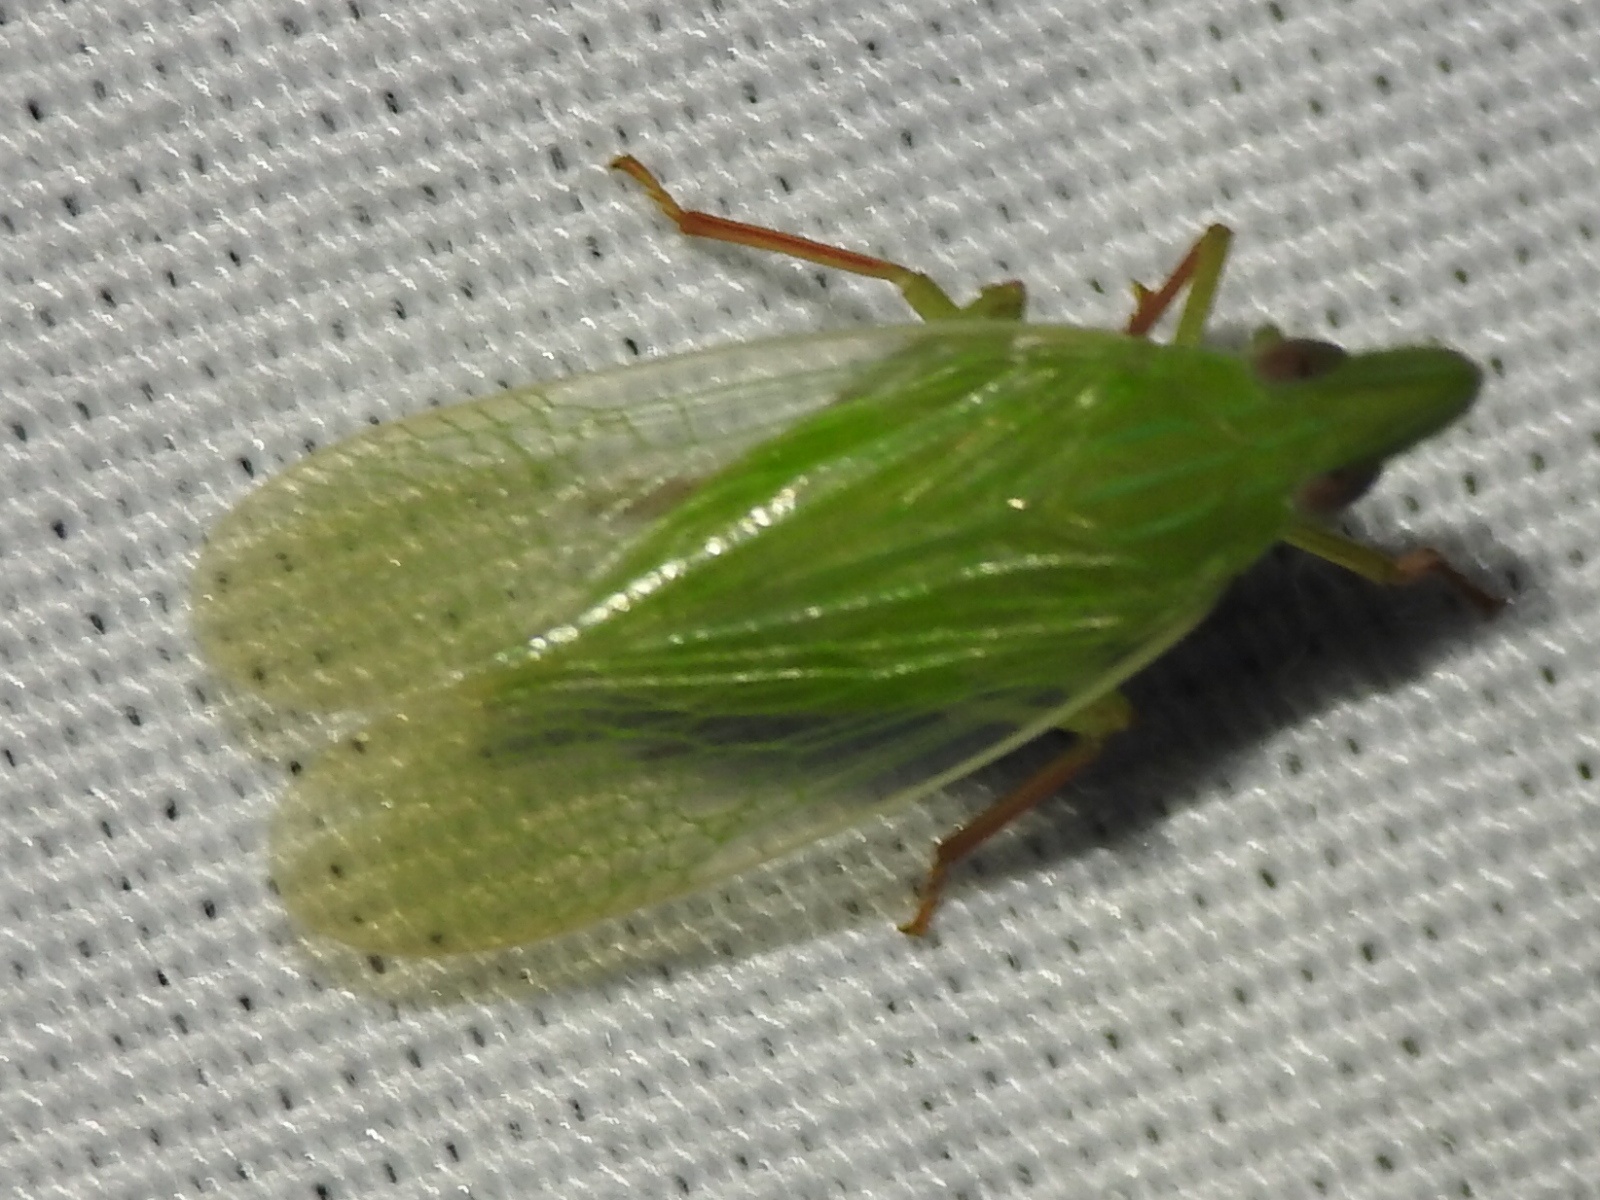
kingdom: Animalia
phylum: Arthropoda
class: Insecta
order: Hemiptera
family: Dictyopharidae
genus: Rhynchomitra
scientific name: Rhynchomitra recurva
